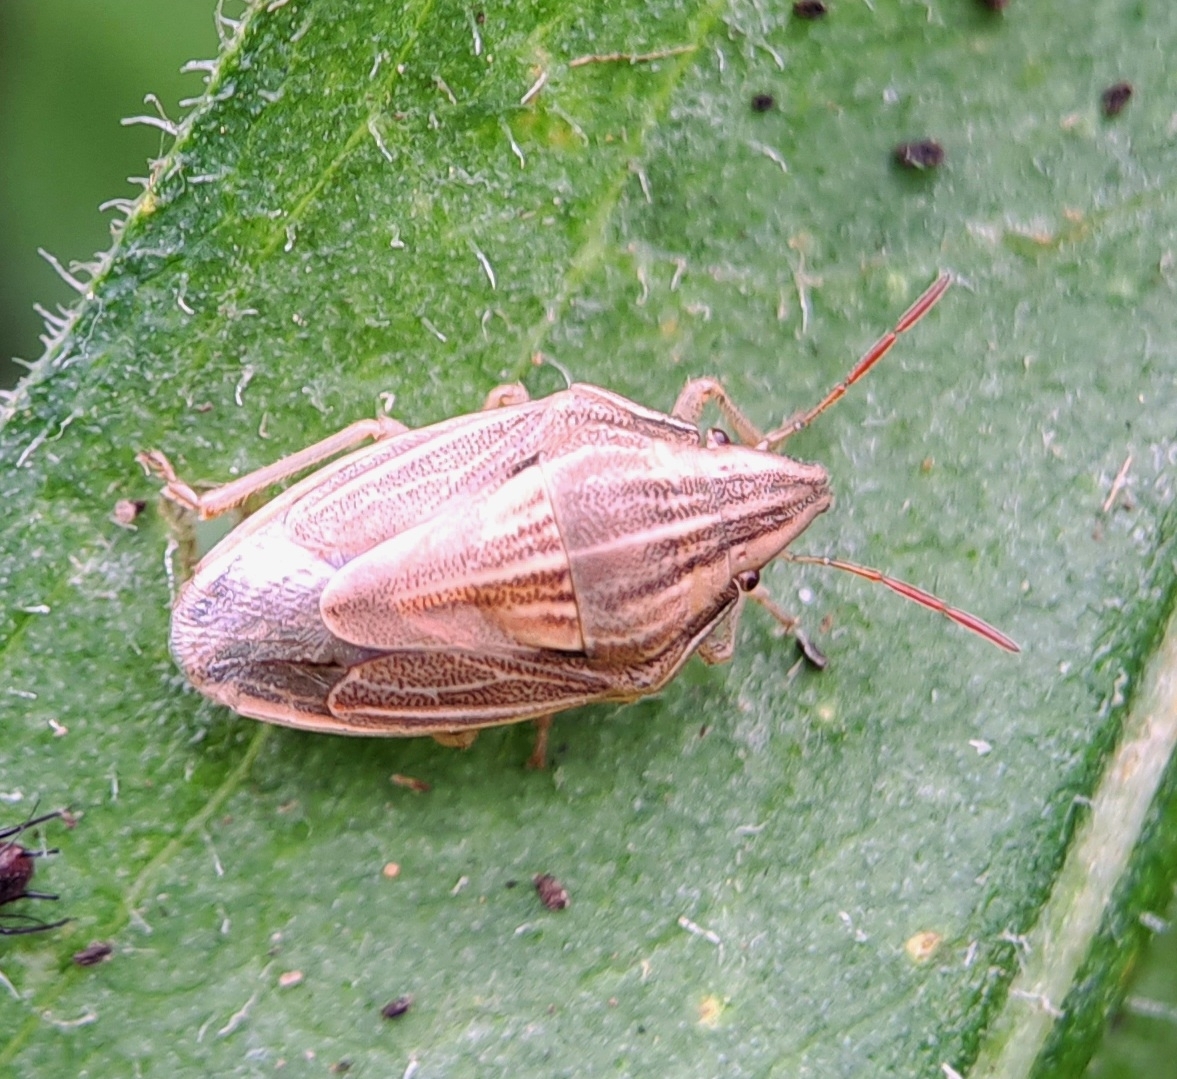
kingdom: Animalia
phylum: Arthropoda
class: Insecta
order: Hemiptera
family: Pentatomidae
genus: Aelia
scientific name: Aelia acuminata
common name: Bishop's mitre
